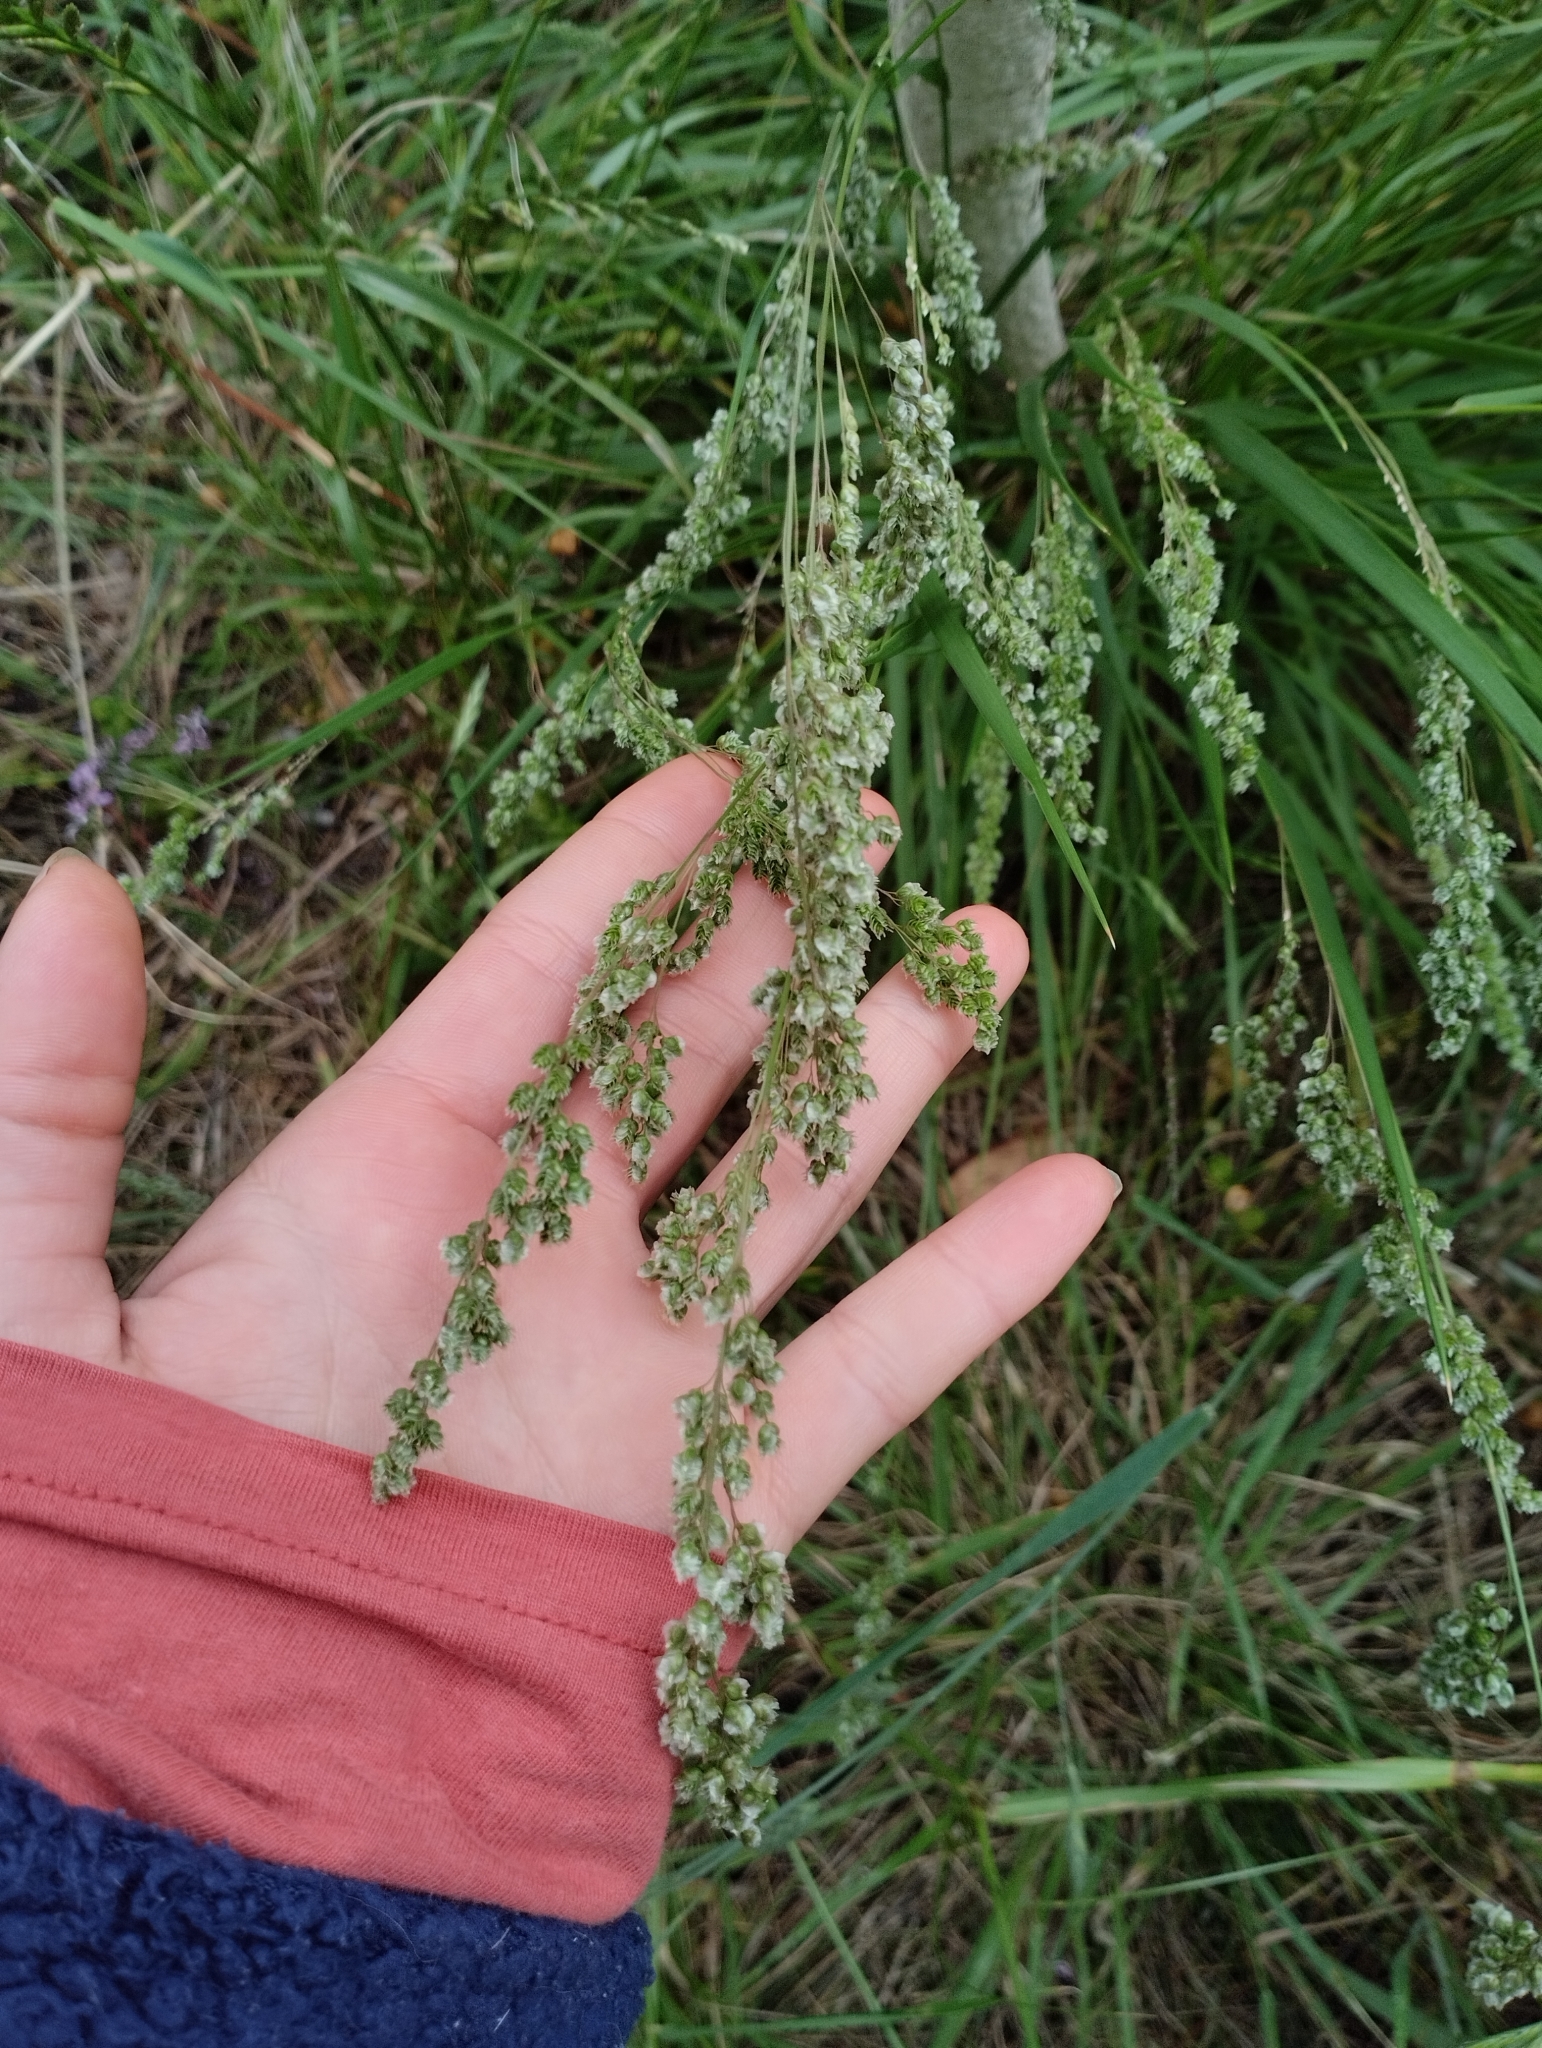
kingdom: Plantae
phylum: Tracheophyta
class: Liliopsida
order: Poales
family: Poaceae
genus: Chascolytrum
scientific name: Chascolytrum subaristatum
